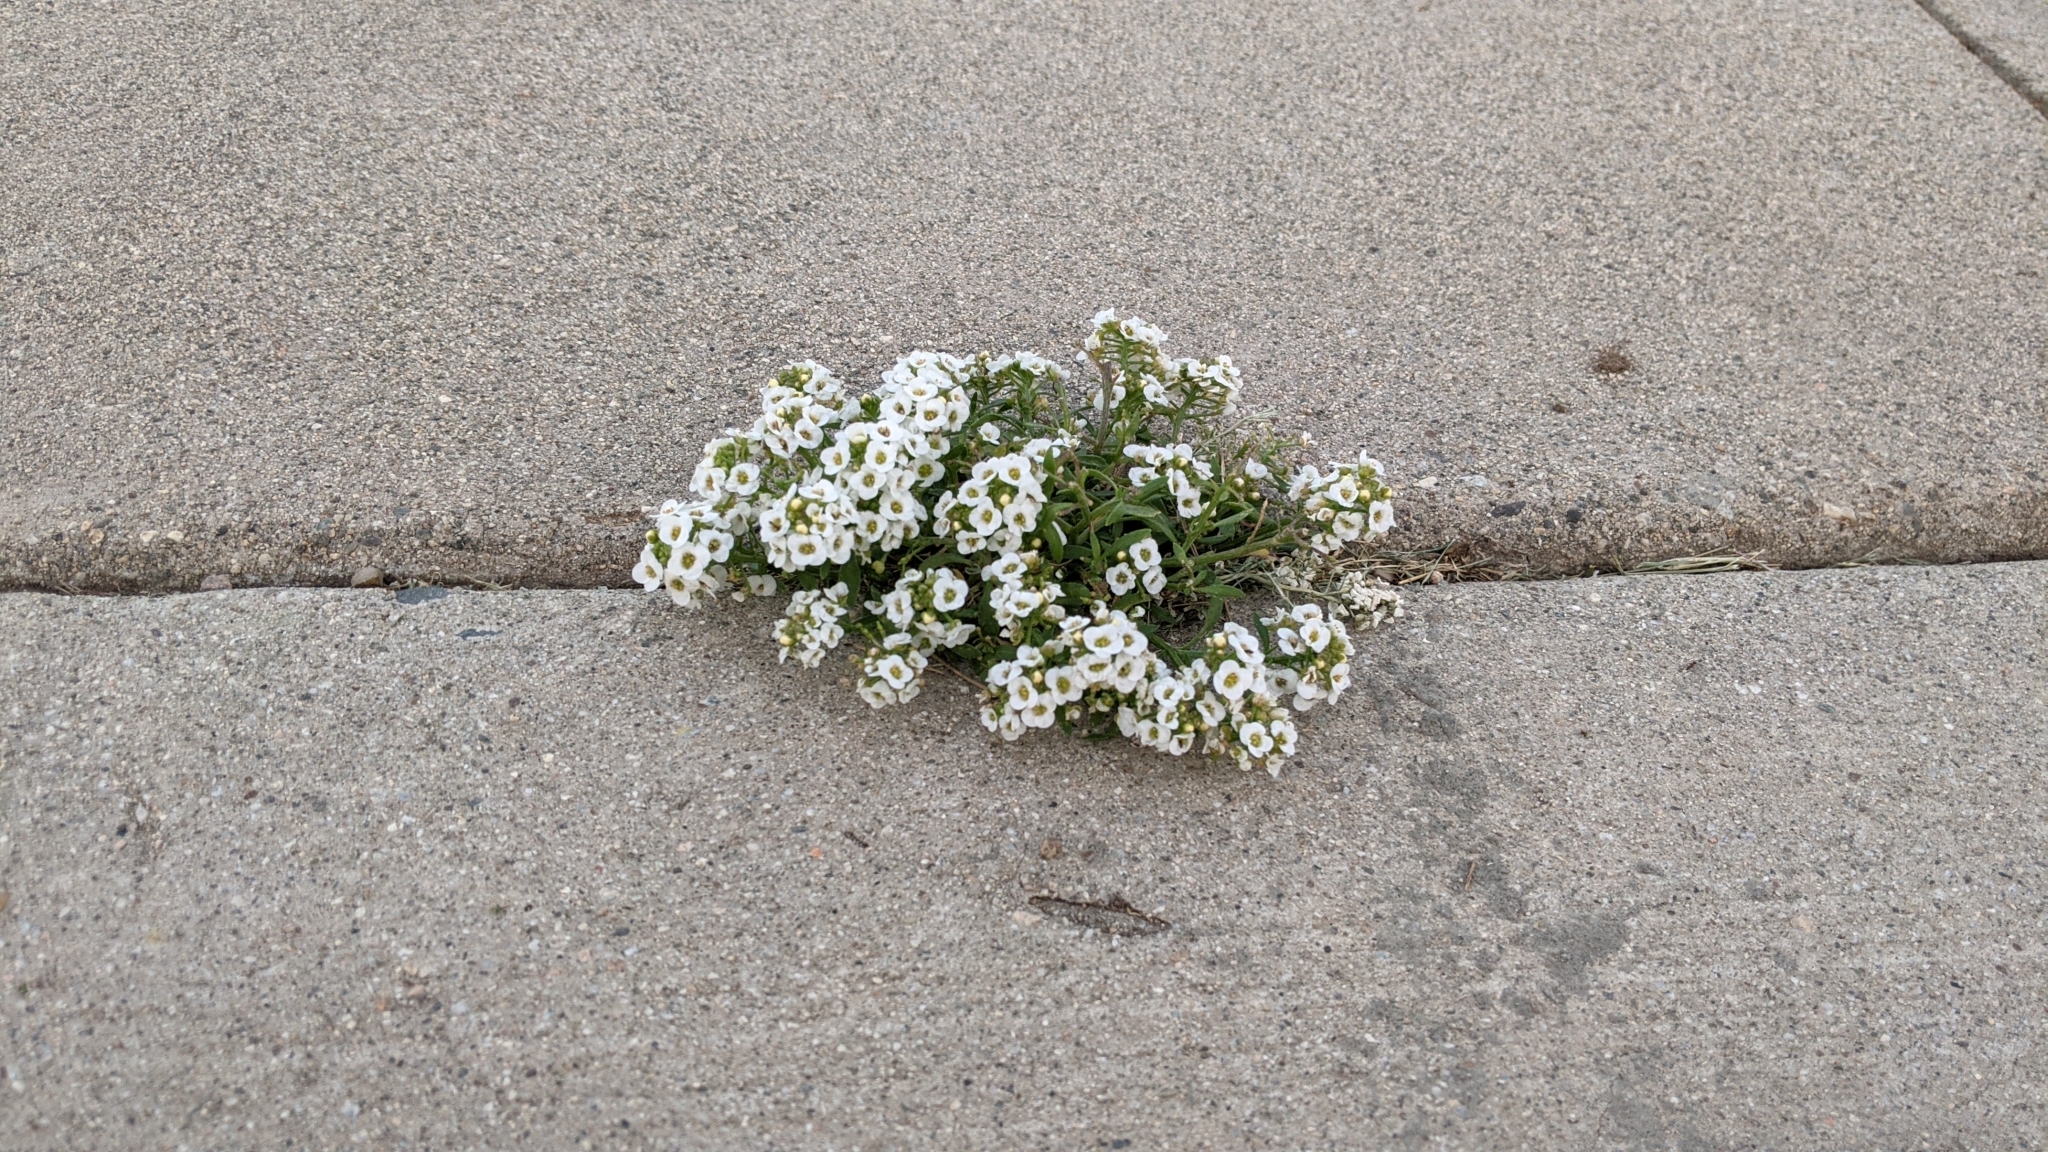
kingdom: Plantae
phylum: Tracheophyta
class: Magnoliopsida
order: Brassicales
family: Brassicaceae
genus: Lobularia
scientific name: Lobularia maritima
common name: Sweet alison
